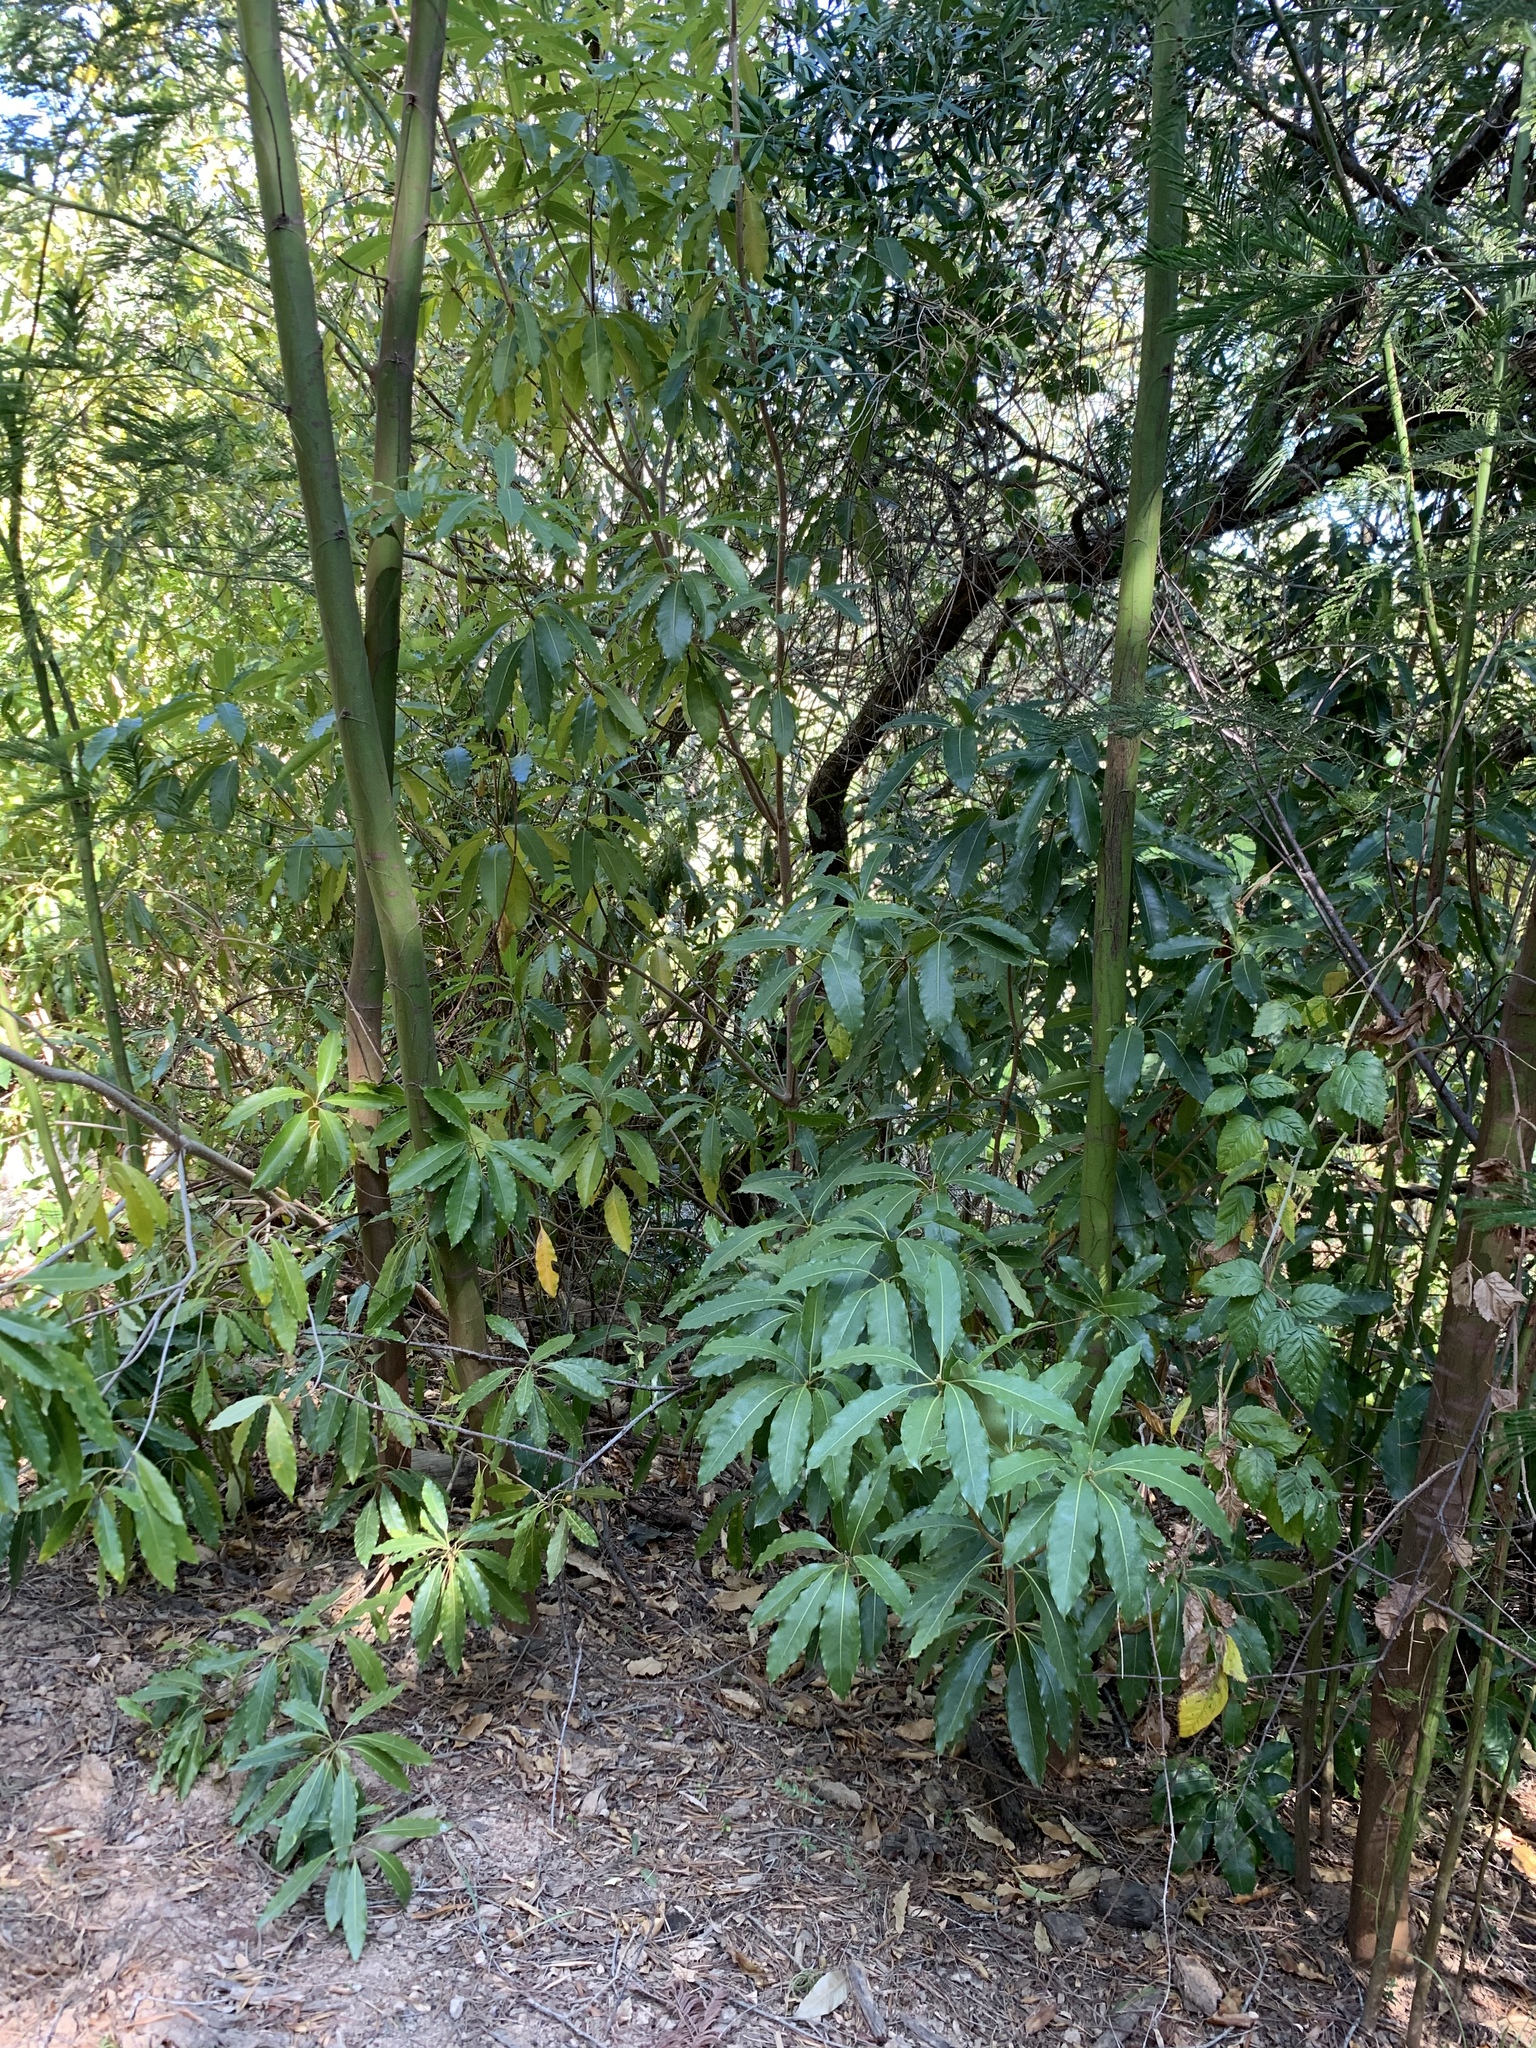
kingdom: Plantae
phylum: Tracheophyta
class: Magnoliopsida
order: Apiales
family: Pittosporaceae
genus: Pittosporum
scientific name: Pittosporum undulatum
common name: Australian cheesewood
